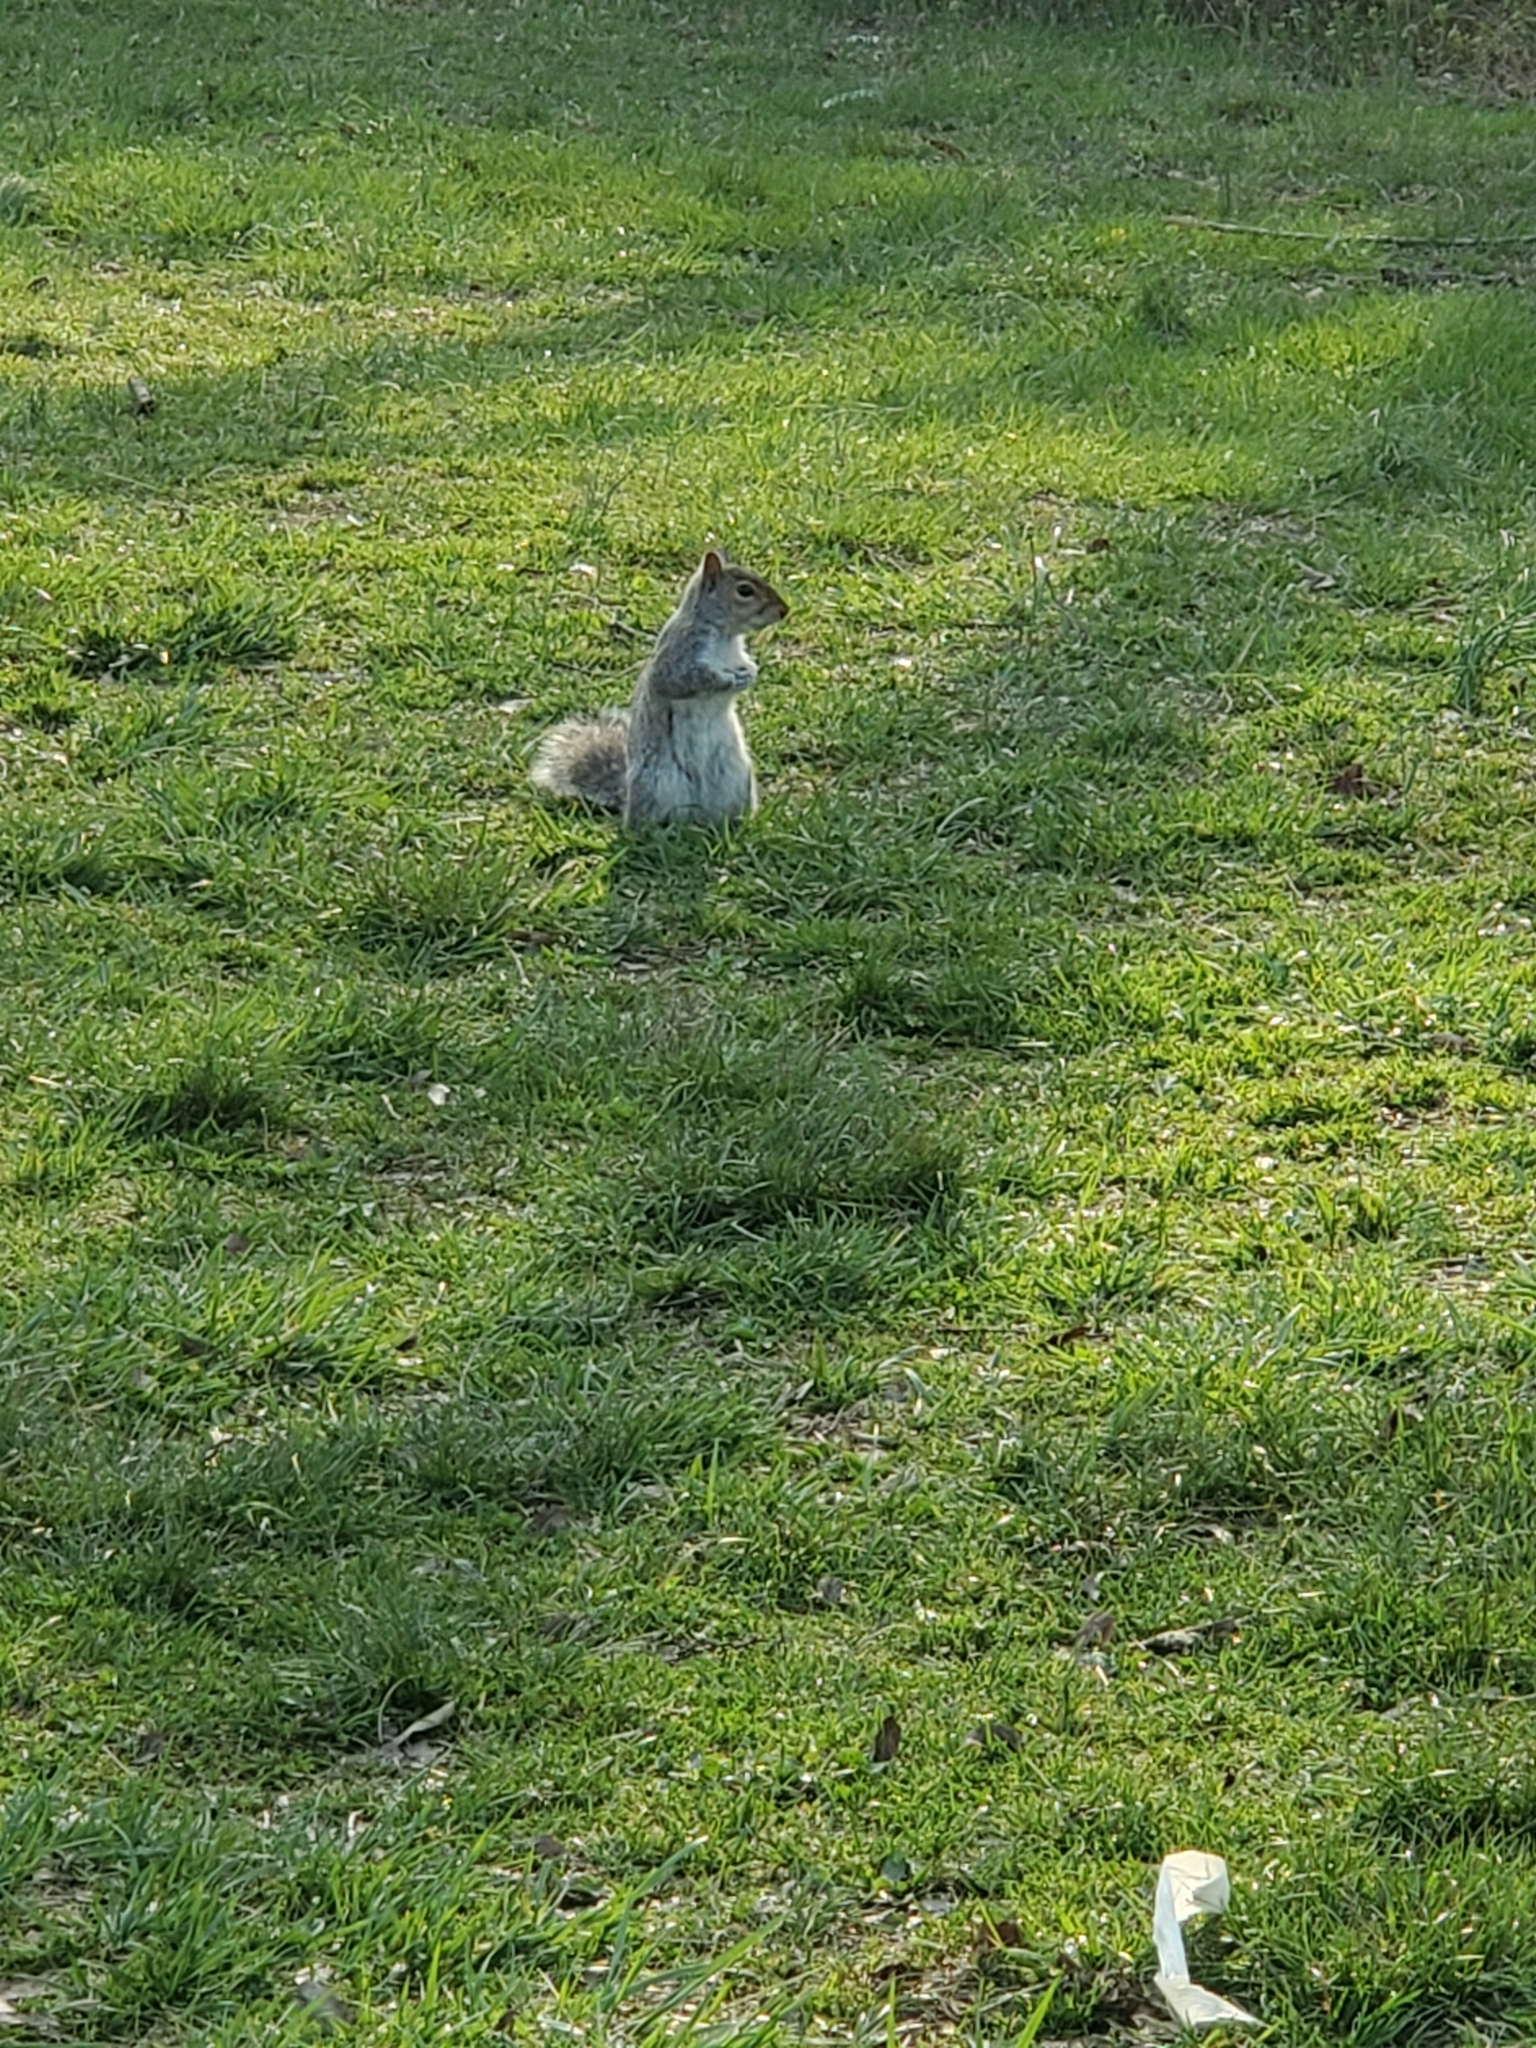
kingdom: Animalia
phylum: Chordata
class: Mammalia
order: Rodentia
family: Sciuridae
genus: Sciurus
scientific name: Sciurus carolinensis
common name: Eastern gray squirrel
